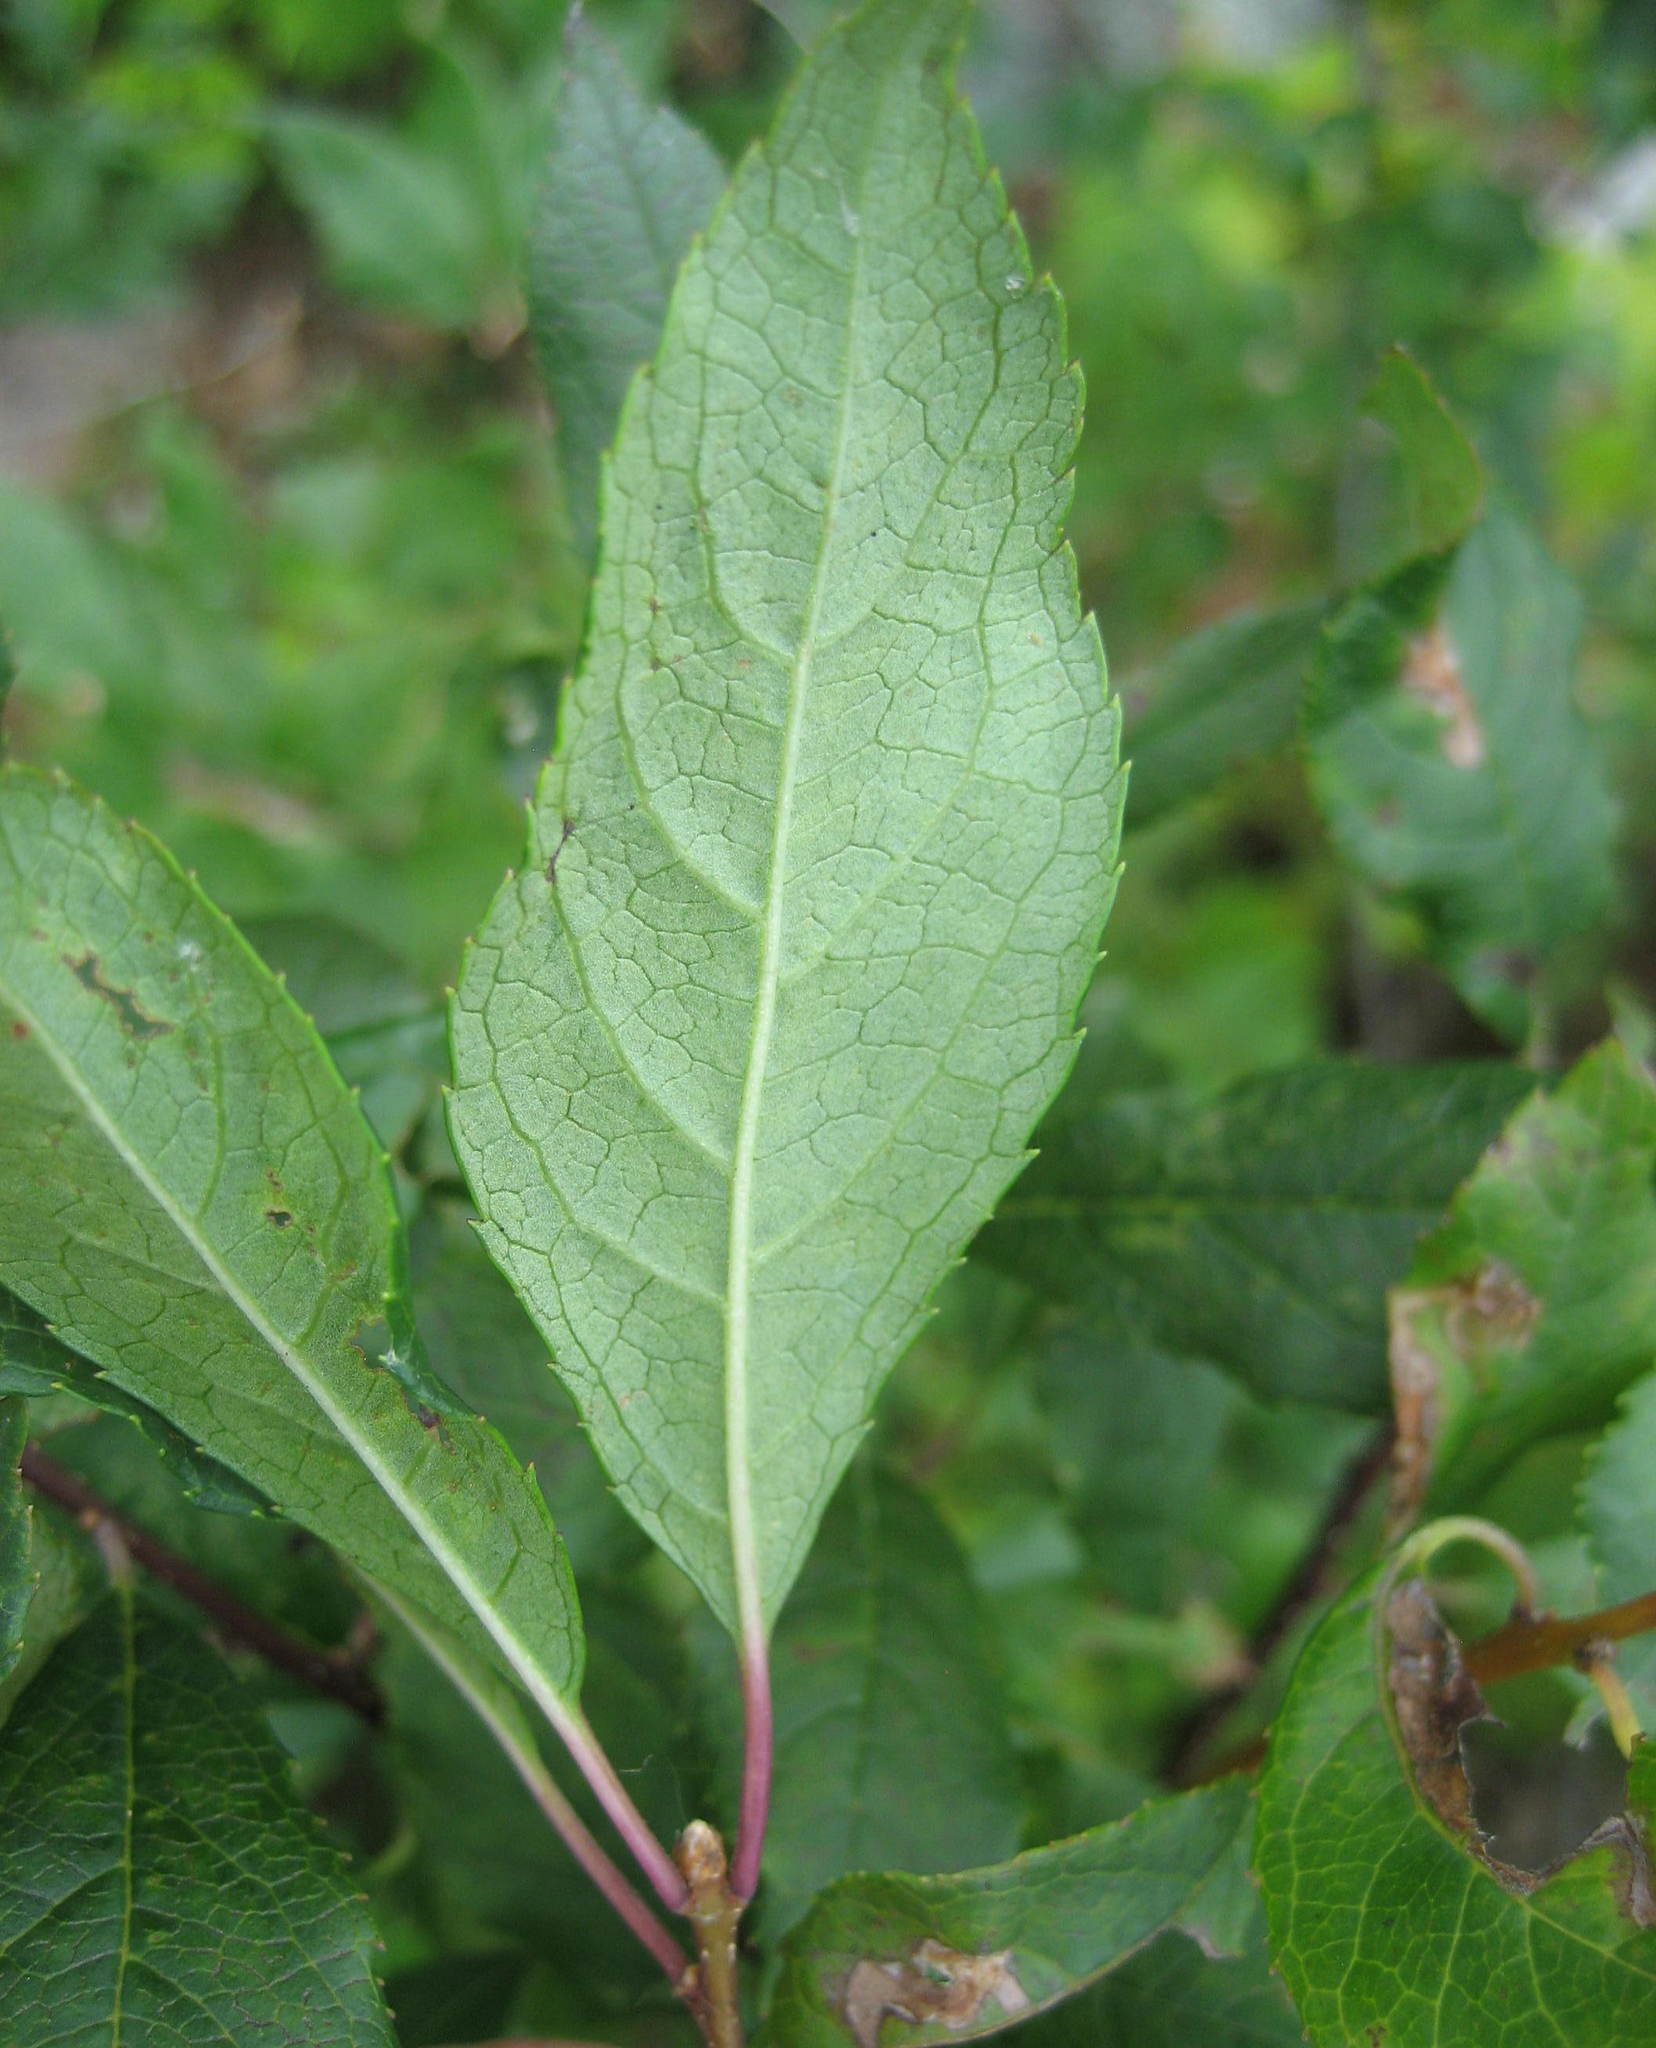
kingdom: Plantae
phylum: Tracheophyta
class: Magnoliopsida
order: Aquifoliales
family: Aquifoliaceae
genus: Ilex
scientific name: Ilex verticillata
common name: Virginia winterberry
